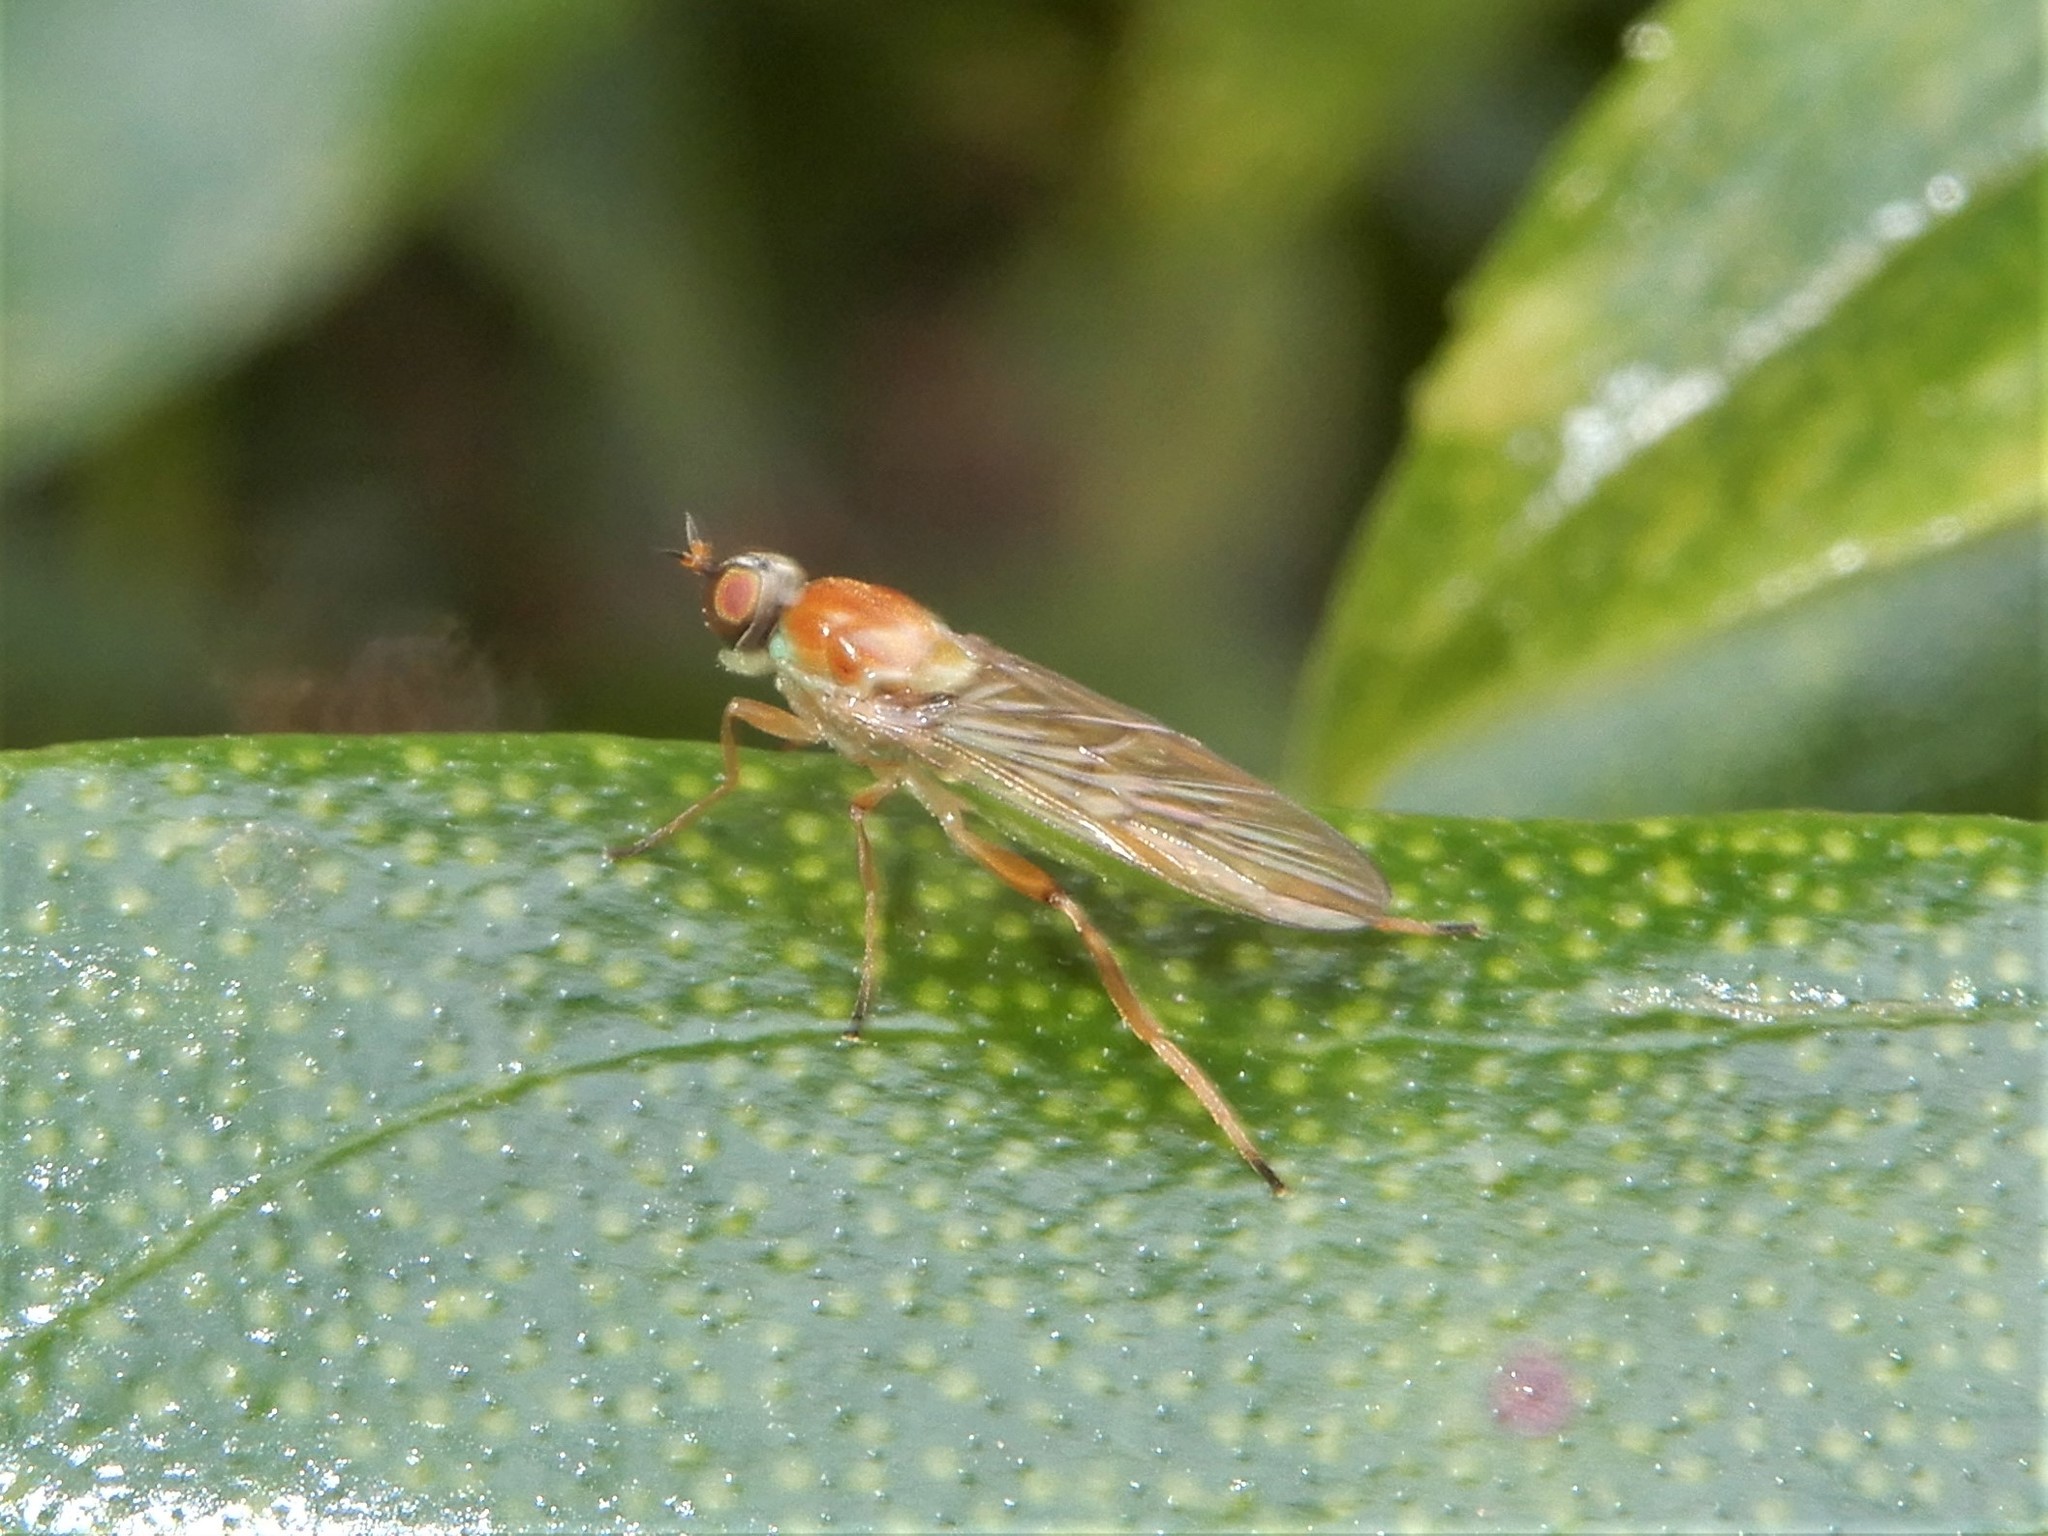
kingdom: Animalia
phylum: Arthropoda
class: Insecta
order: Diptera
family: Stratiomyidae
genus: Australoberis
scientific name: Australoberis refugians
